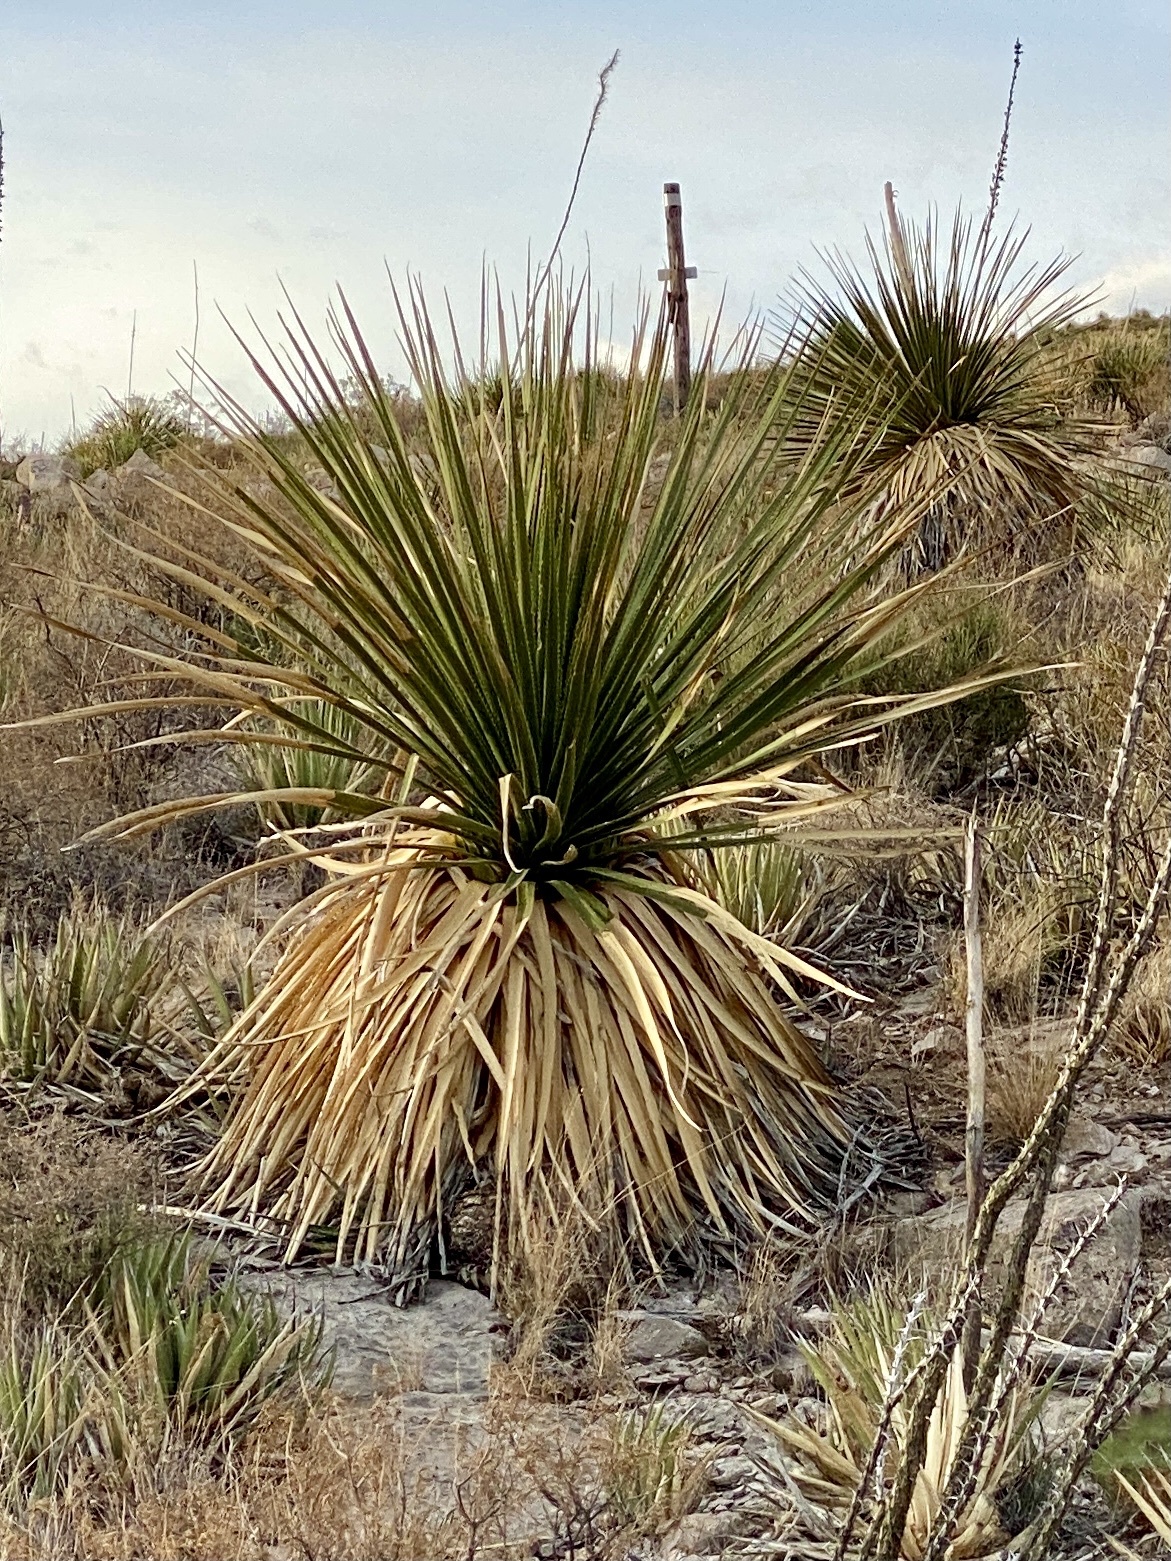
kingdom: Plantae
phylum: Tracheophyta
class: Liliopsida
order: Asparagales
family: Asparagaceae
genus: Dasylirion
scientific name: Dasylirion leiophyllum
